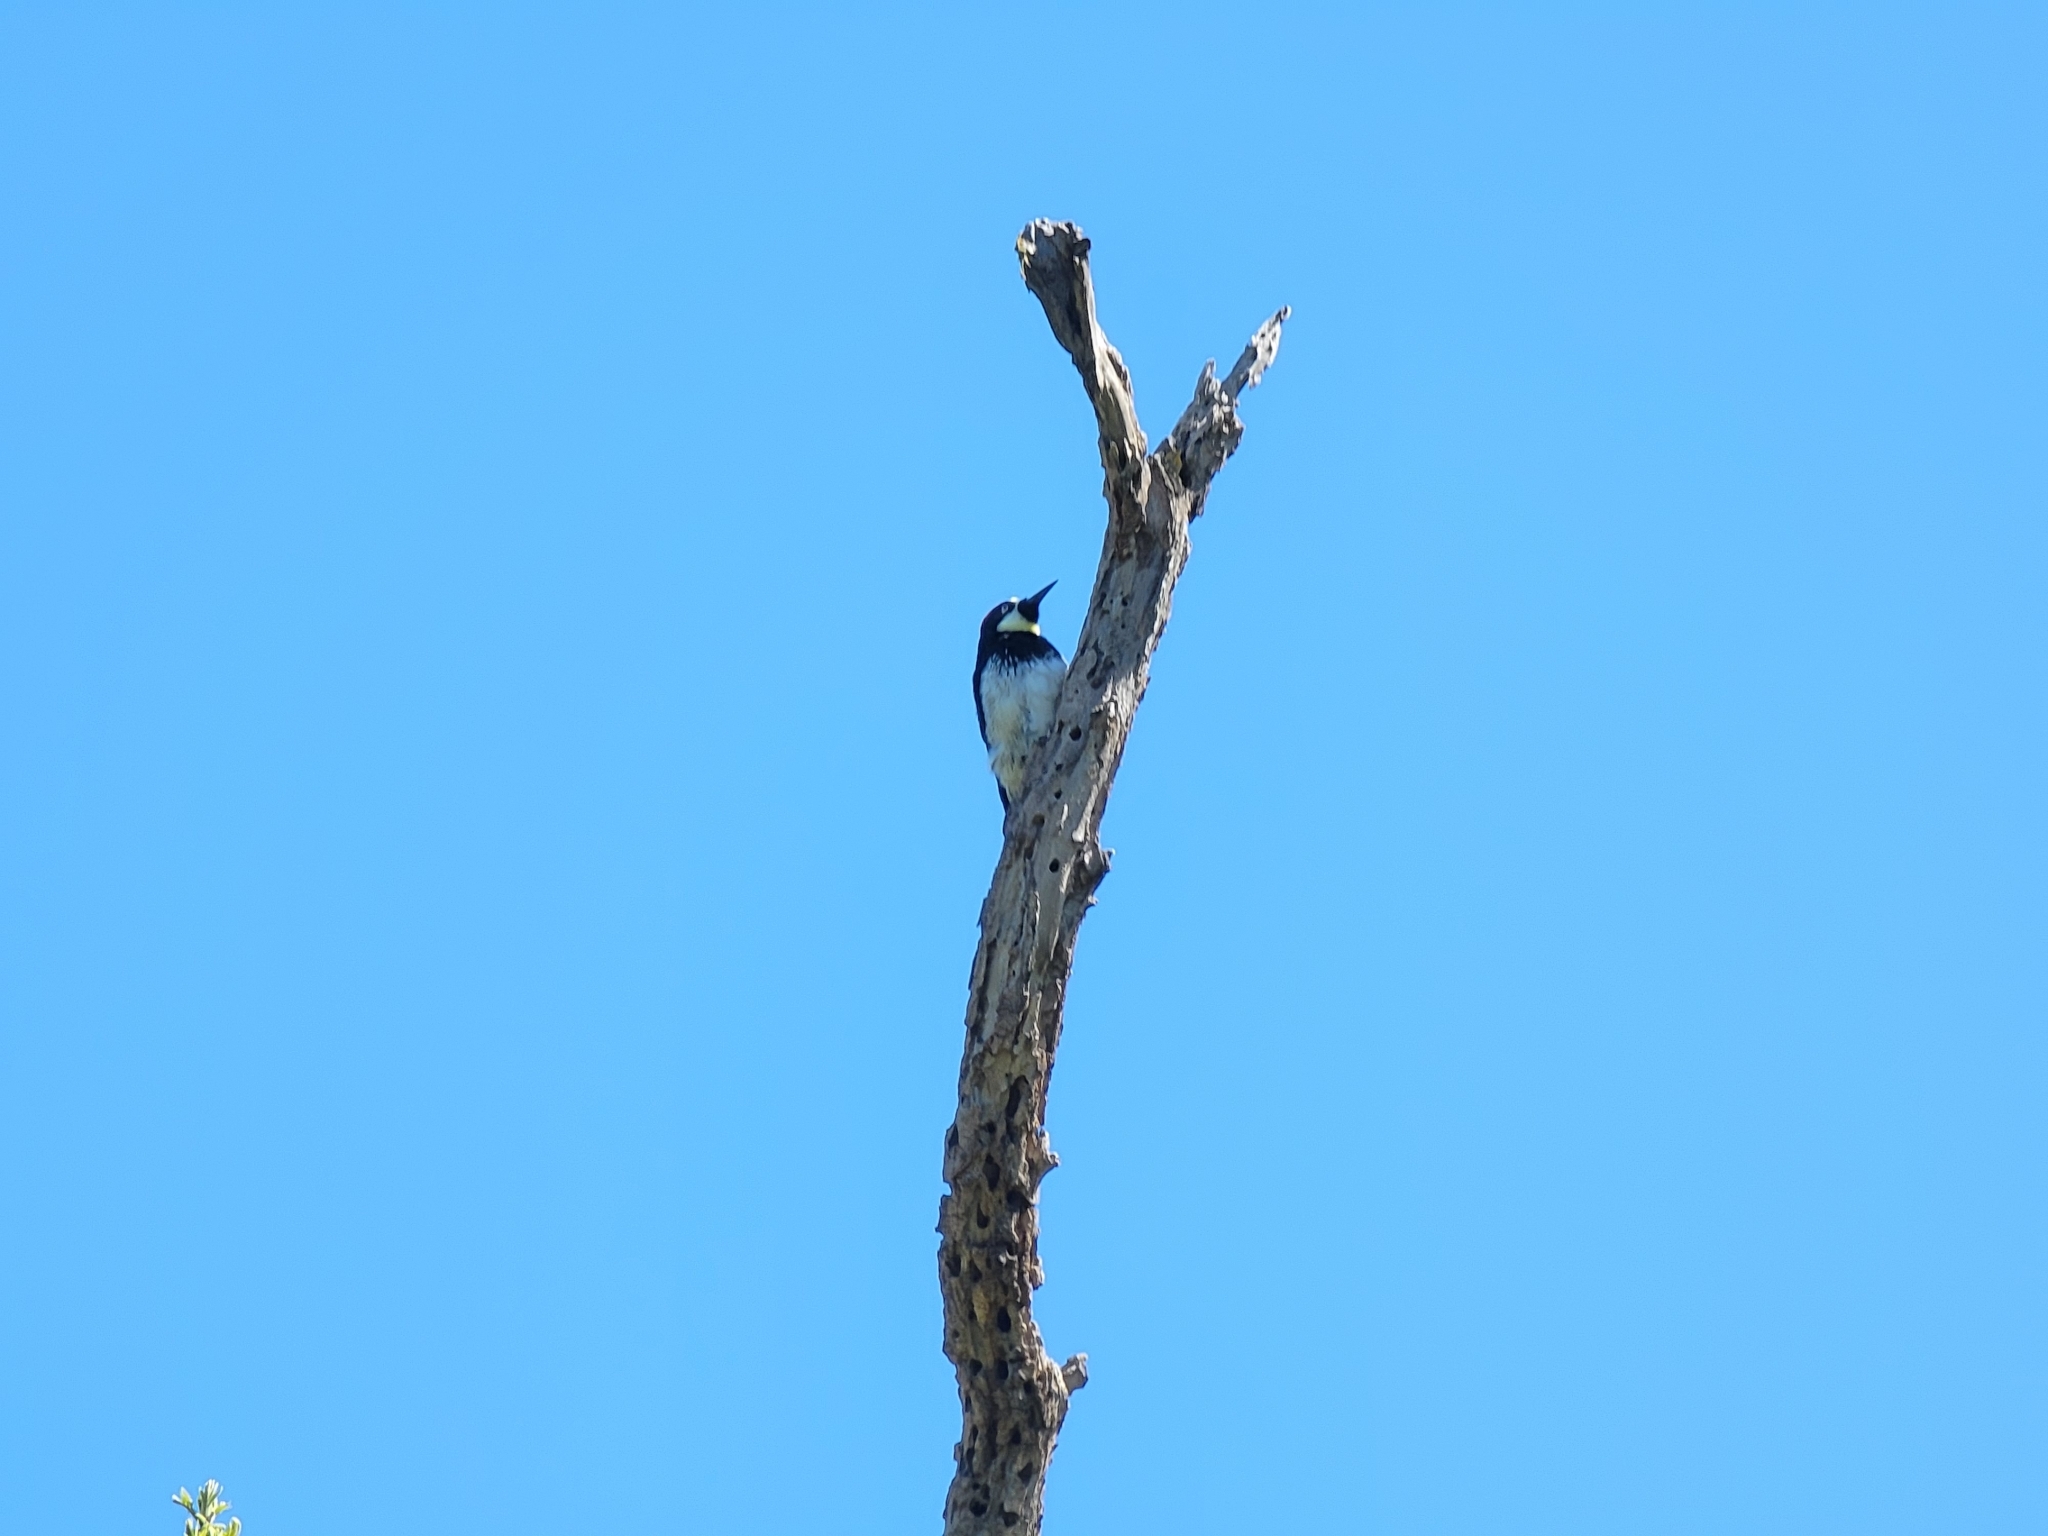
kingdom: Animalia
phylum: Chordata
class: Aves
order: Piciformes
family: Picidae
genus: Melanerpes
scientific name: Melanerpes formicivorus
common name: Acorn woodpecker
